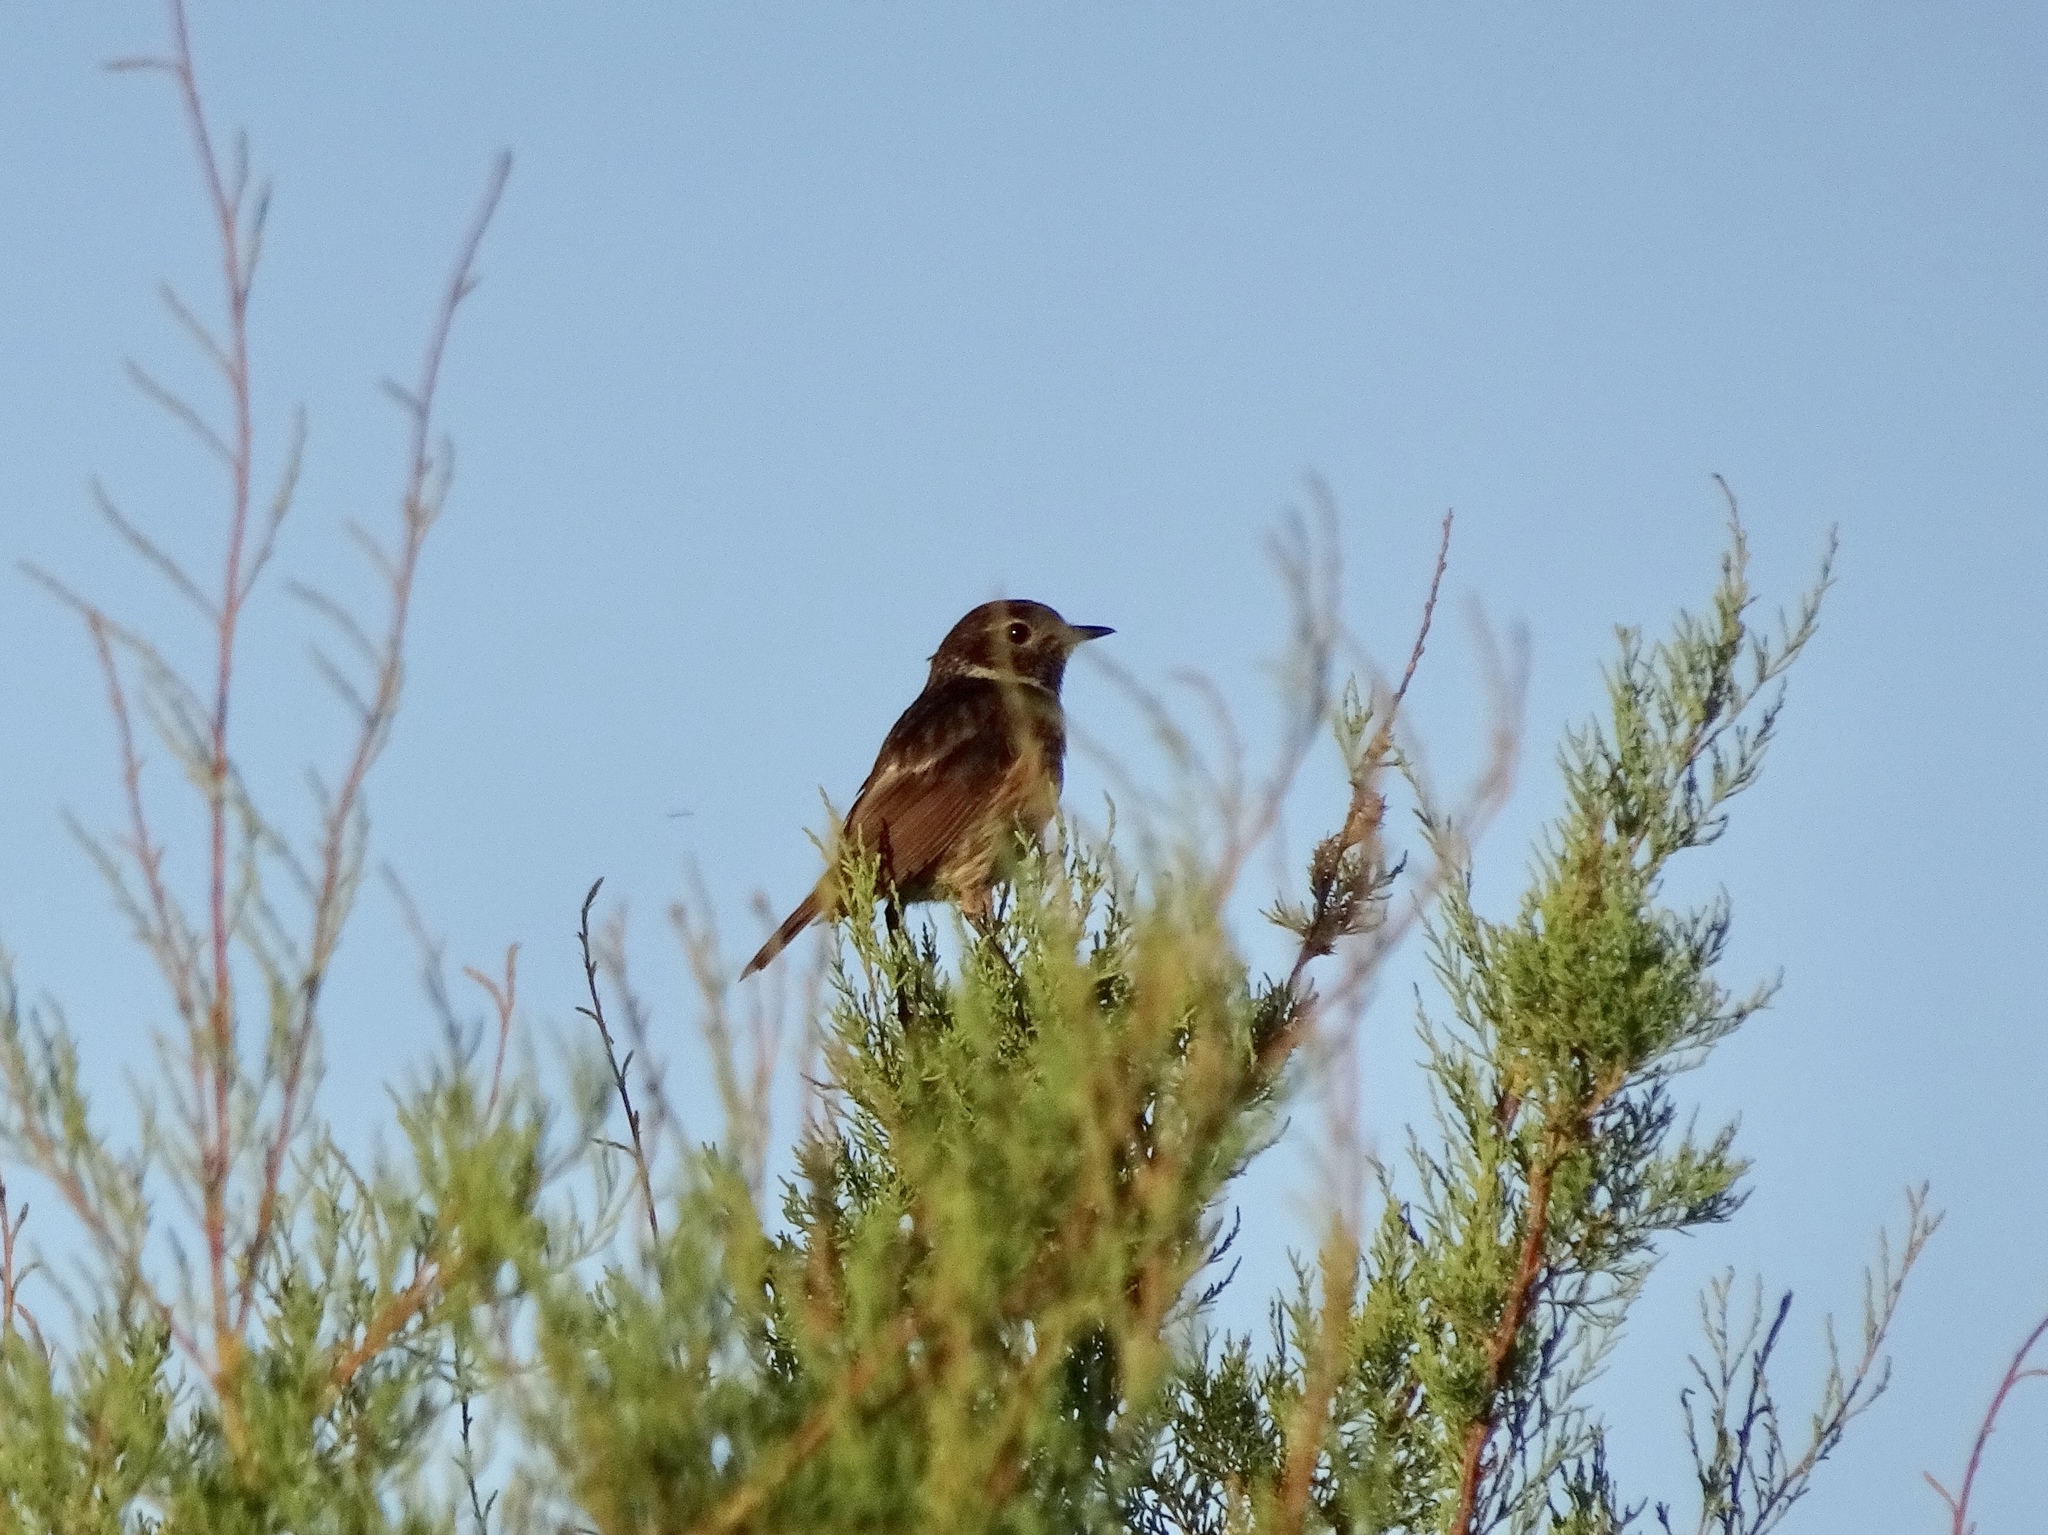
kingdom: Animalia
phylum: Chordata
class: Aves
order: Passeriformes
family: Muscicapidae
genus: Saxicola
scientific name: Saxicola rubicola
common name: European stonechat
